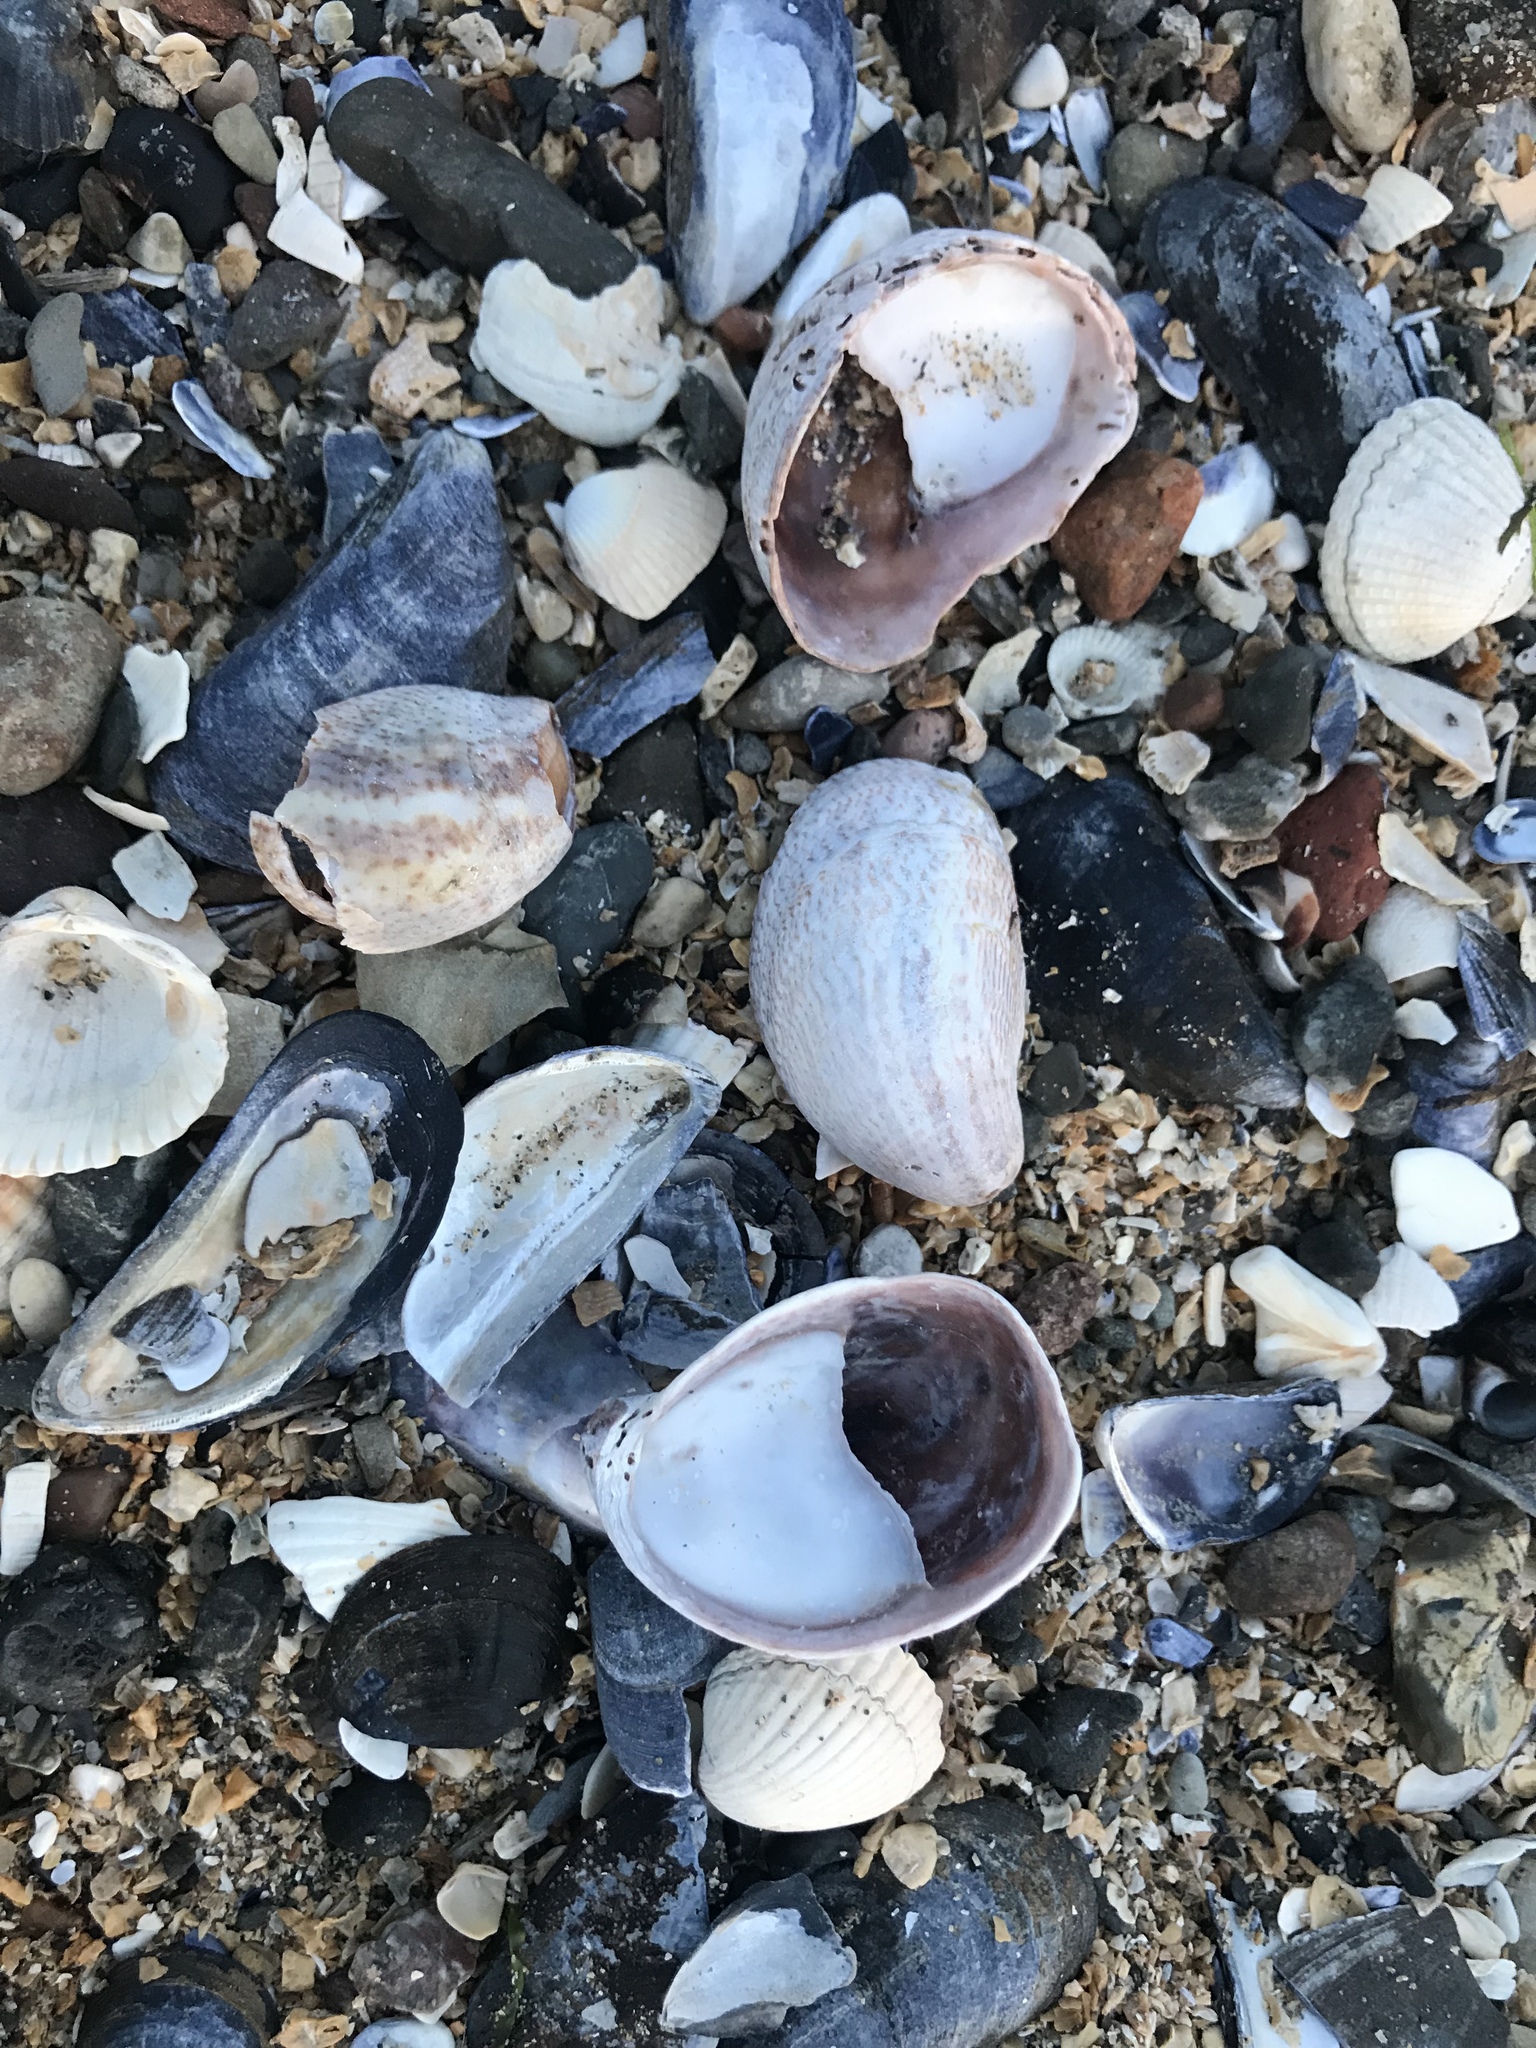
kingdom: Animalia
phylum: Mollusca
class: Gastropoda
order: Littorinimorpha
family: Calyptraeidae
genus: Crepidula
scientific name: Crepidula fornicata
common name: Slipper limpet
